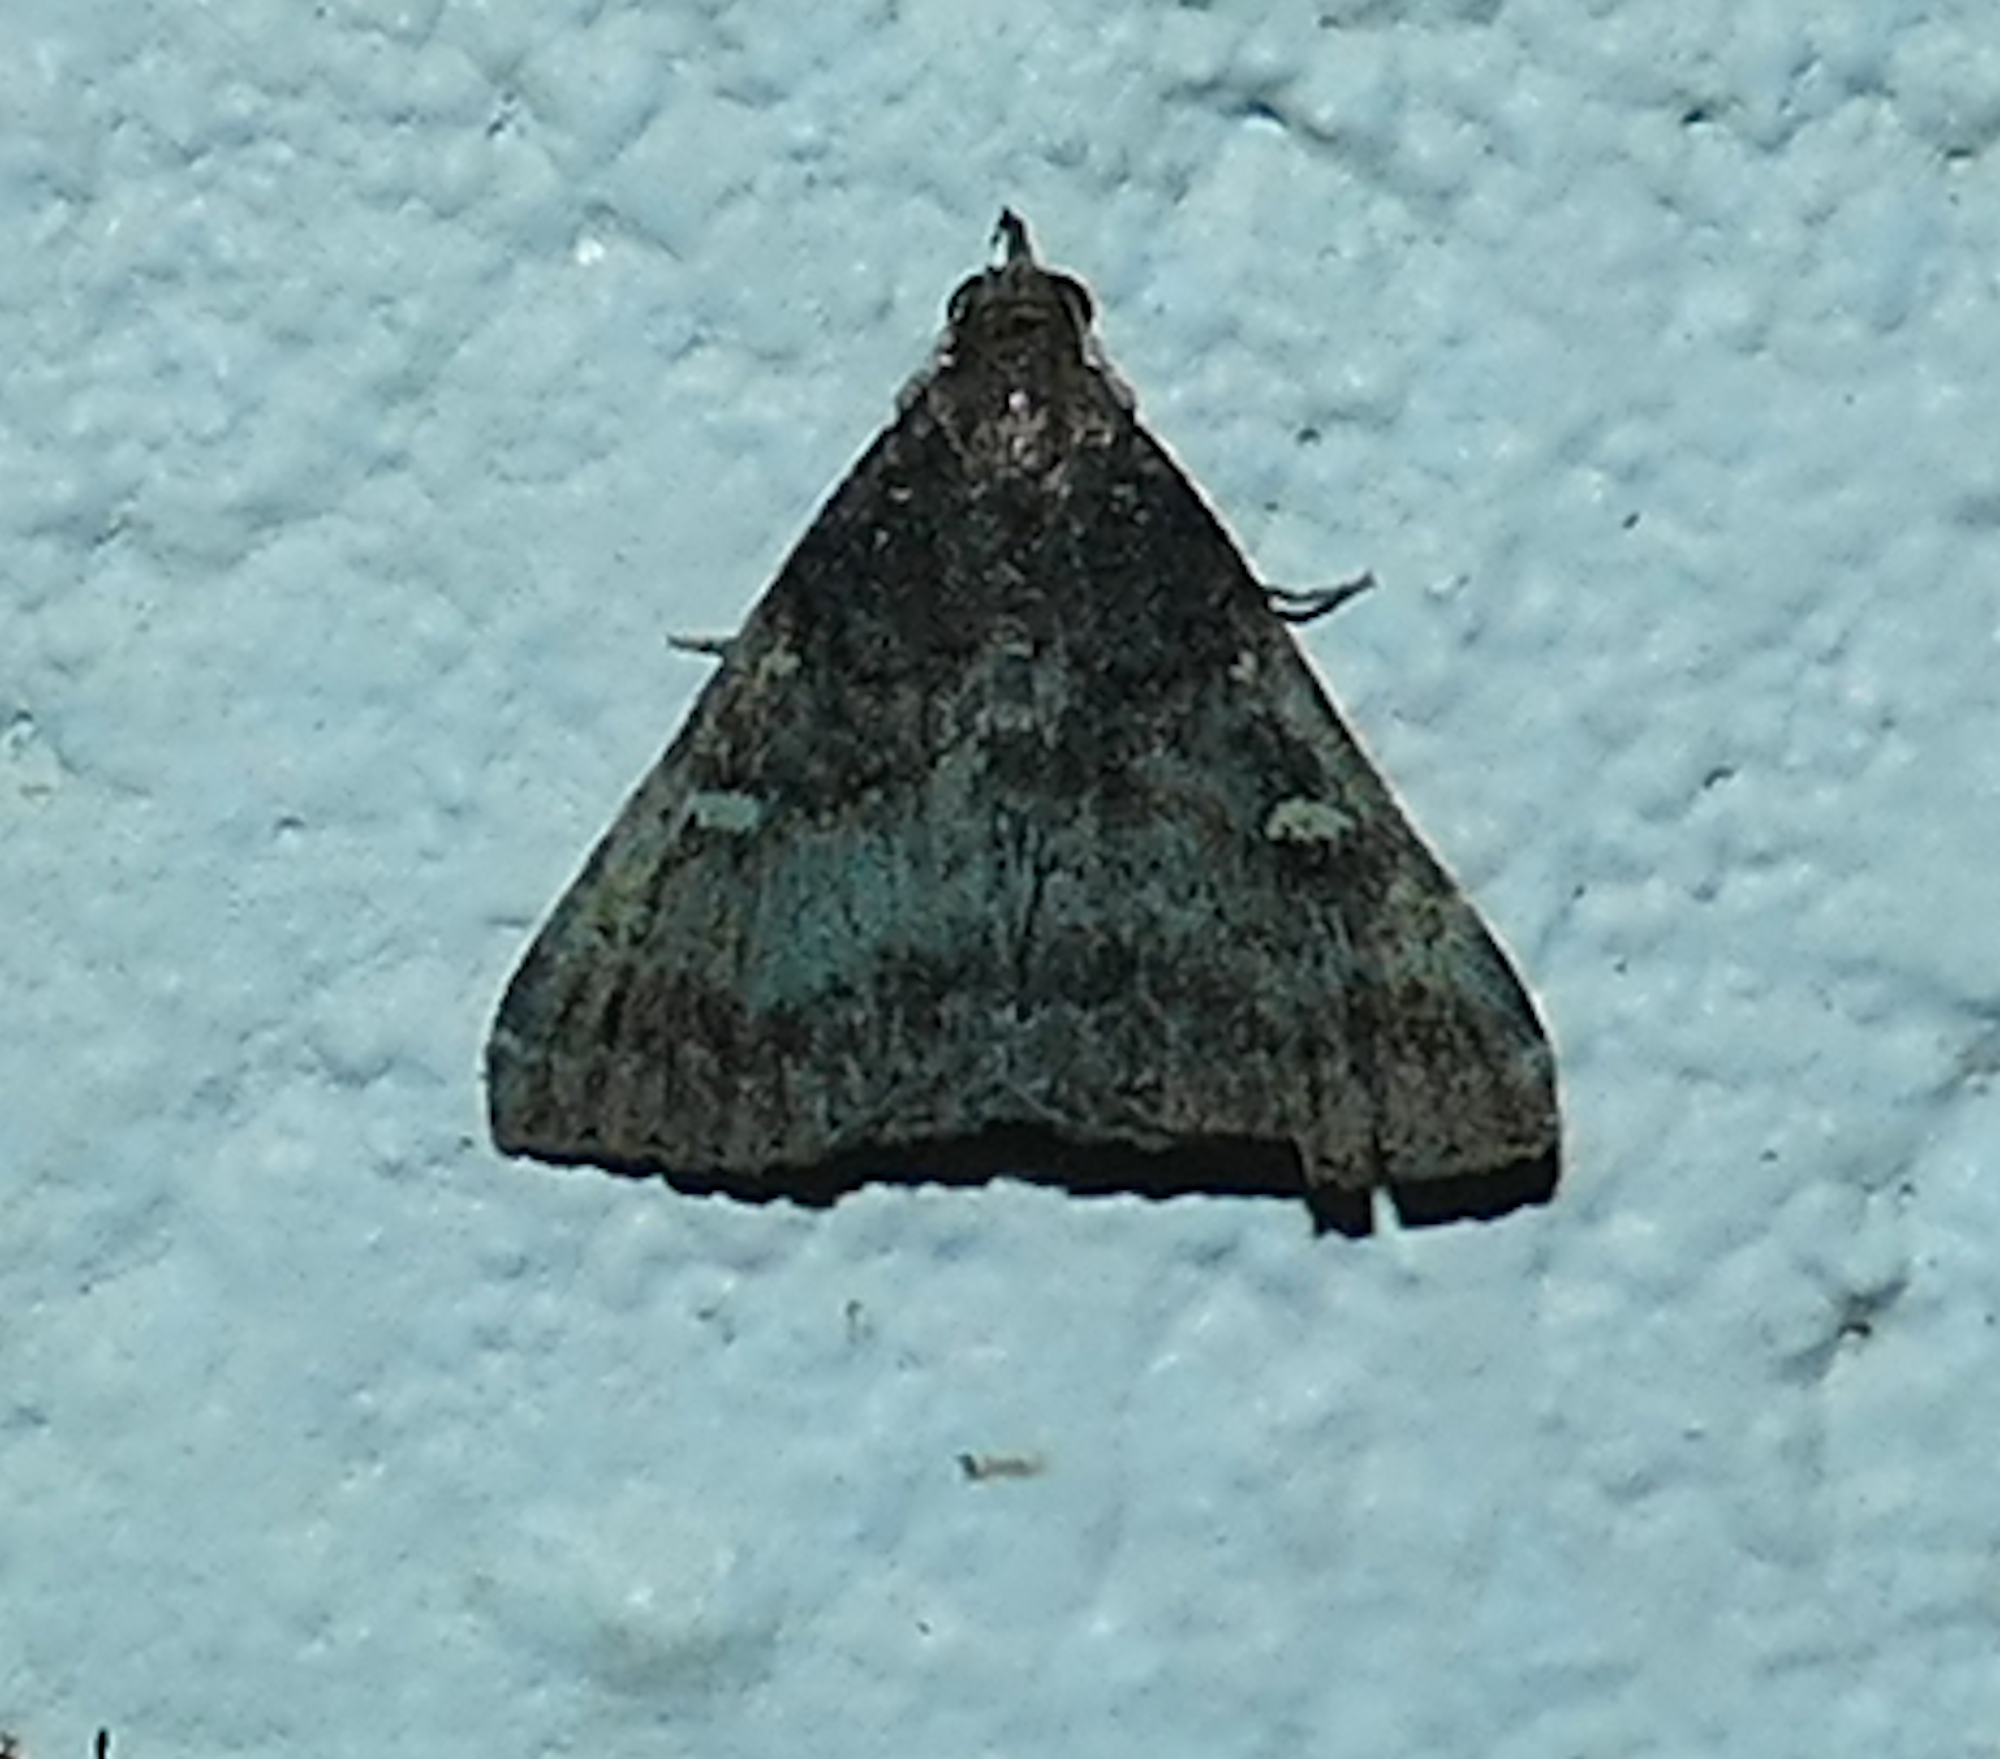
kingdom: Animalia
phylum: Arthropoda
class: Insecta
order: Lepidoptera
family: Erebidae
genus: Tetanolita
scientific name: Tetanolita mynesalis
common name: Smoky tetanolita moth
